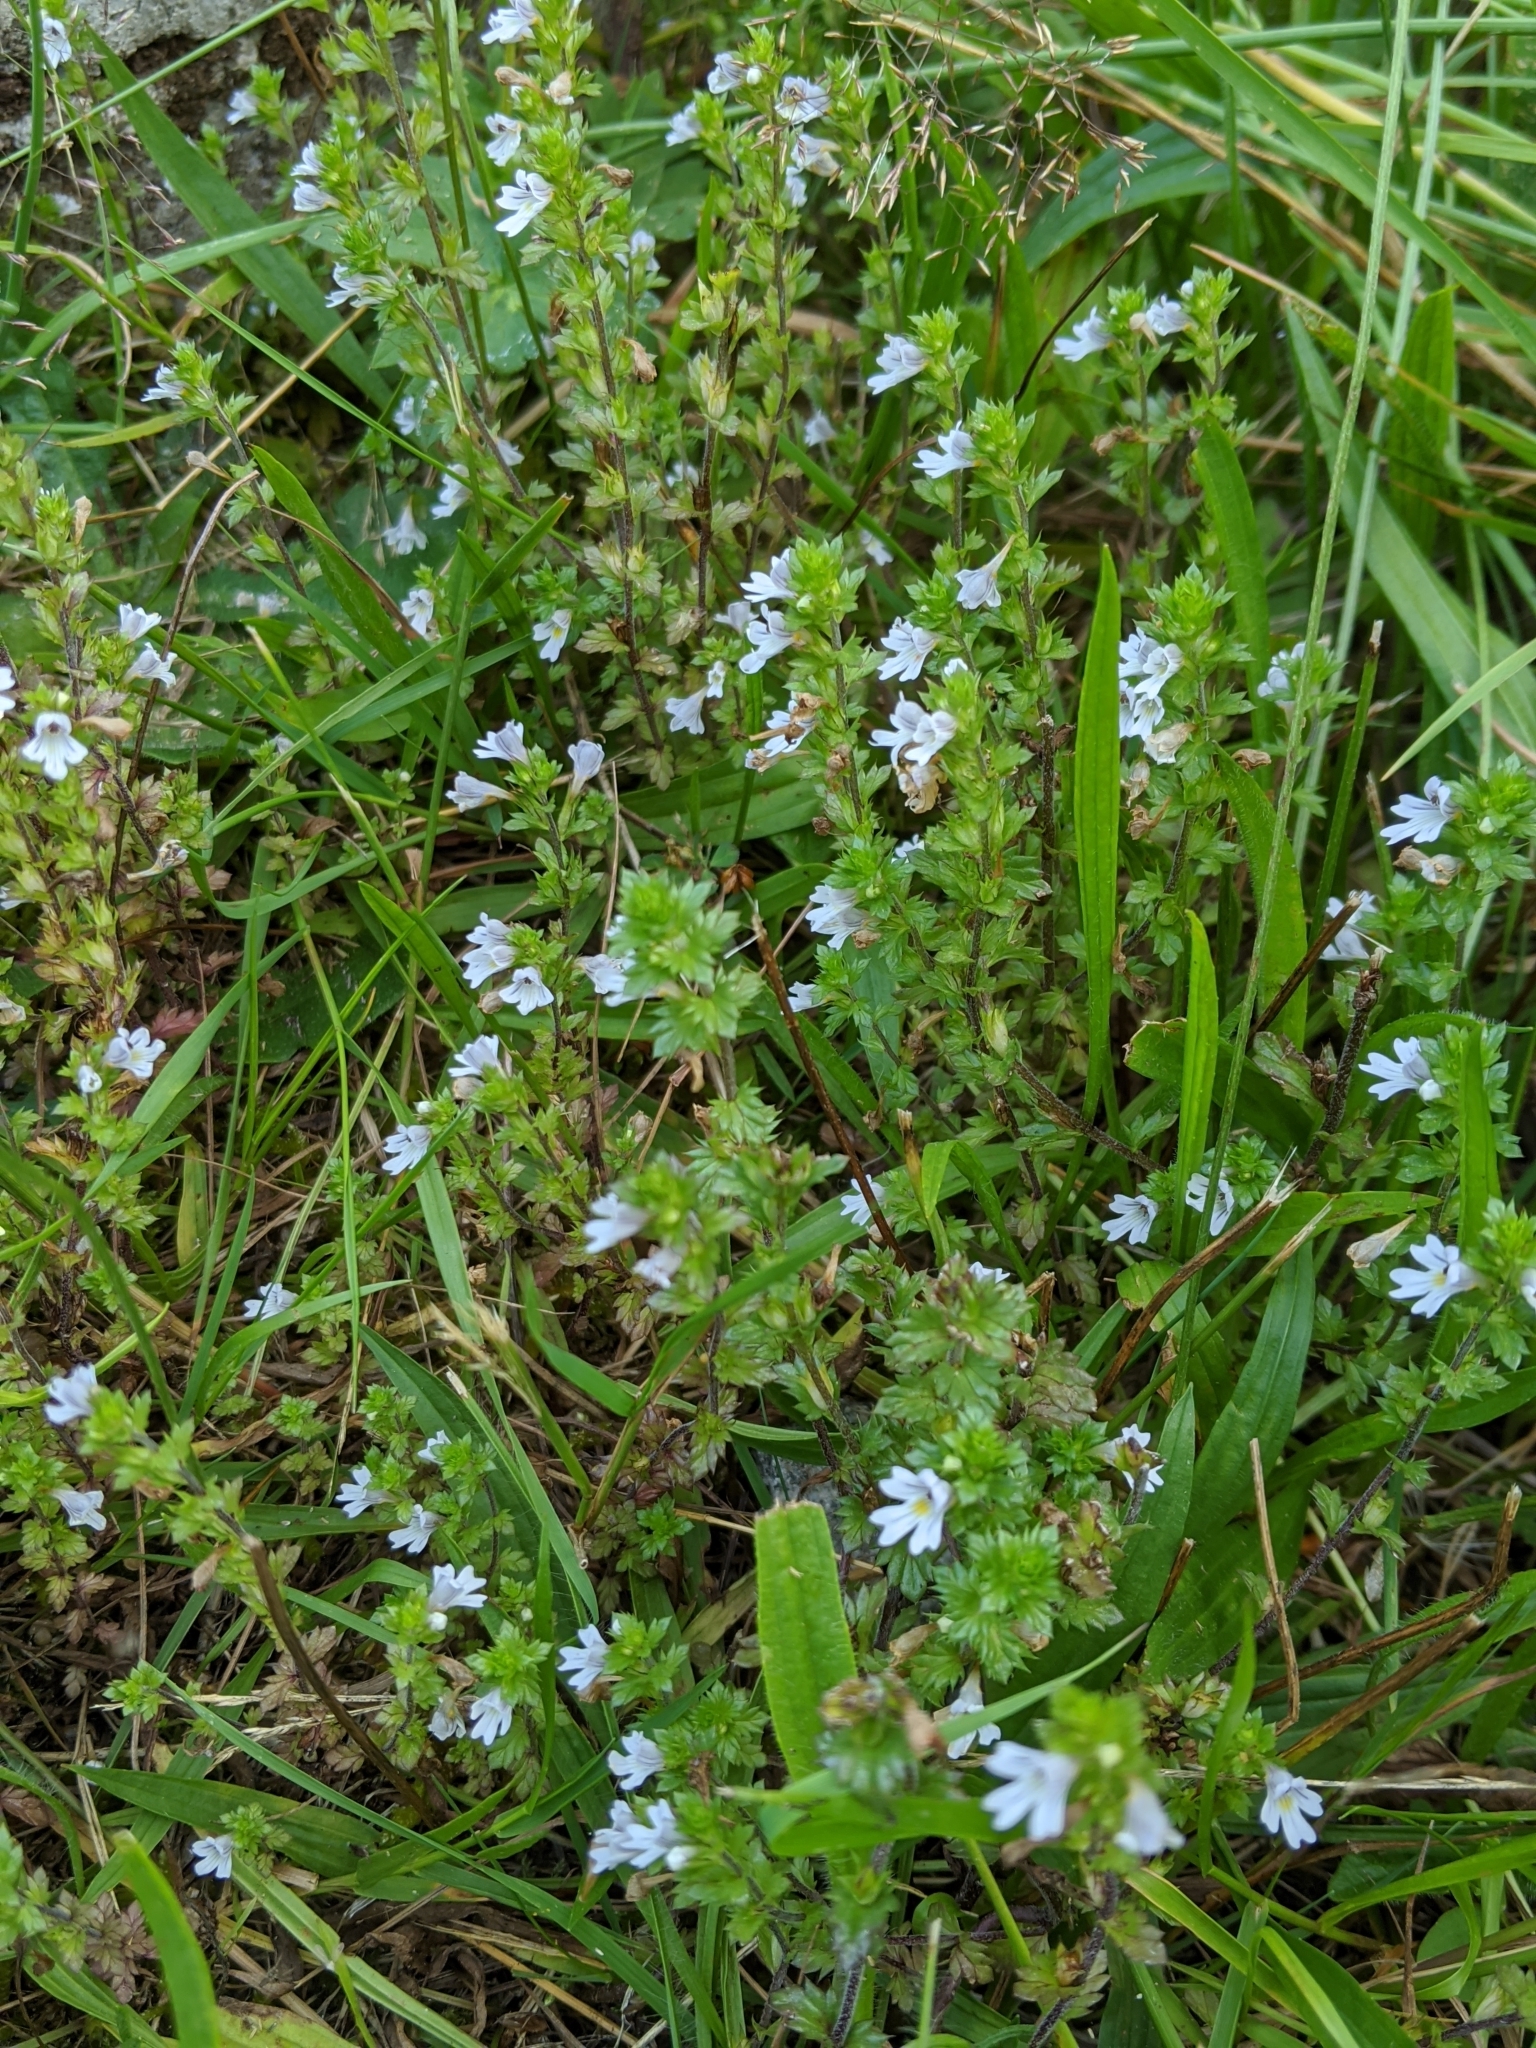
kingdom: Plantae
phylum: Tracheophyta
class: Magnoliopsida
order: Lamiales
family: Orobanchaceae
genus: Euphrasia
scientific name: Euphrasia nemorosa
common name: Common eyebright
